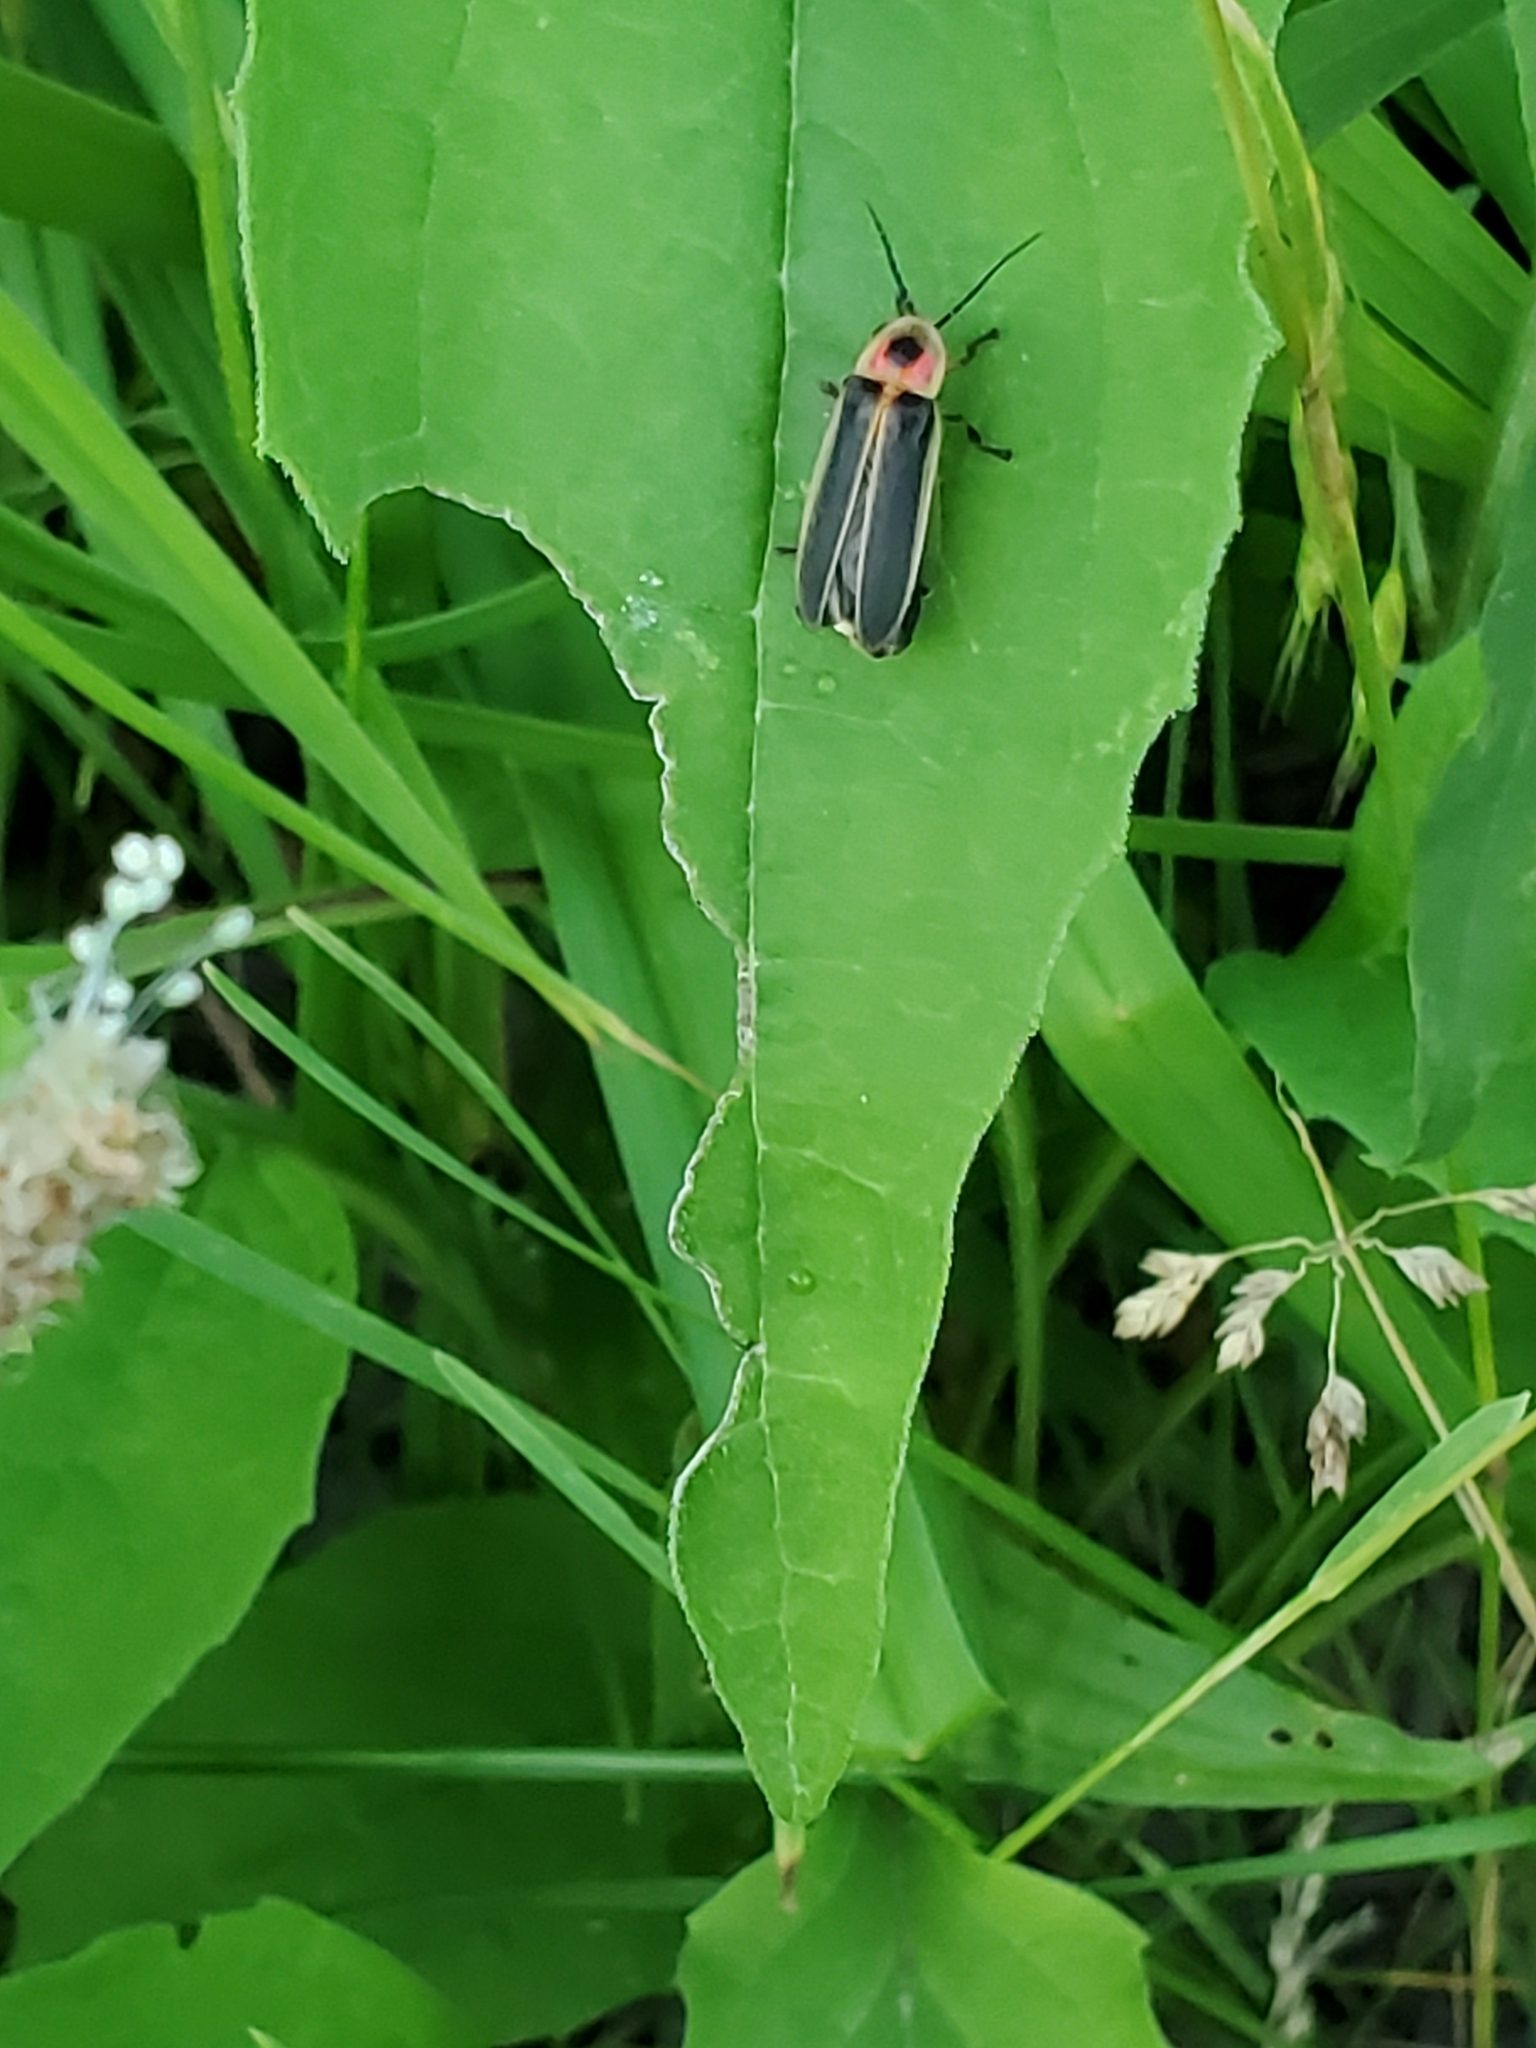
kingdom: Animalia
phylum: Arthropoda
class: Insecta
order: Coleoptera
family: Lampyridae
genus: Photinus
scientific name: Photinus pyralis
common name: Big dipper firefly
